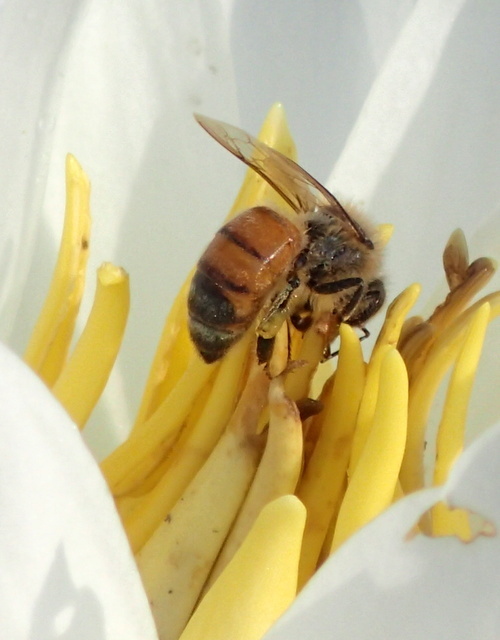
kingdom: Animalia
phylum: Arthropoda
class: Insecta
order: Hymenoptera
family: Apidae
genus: Apis
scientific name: Apis mellifera
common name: Honey bee
